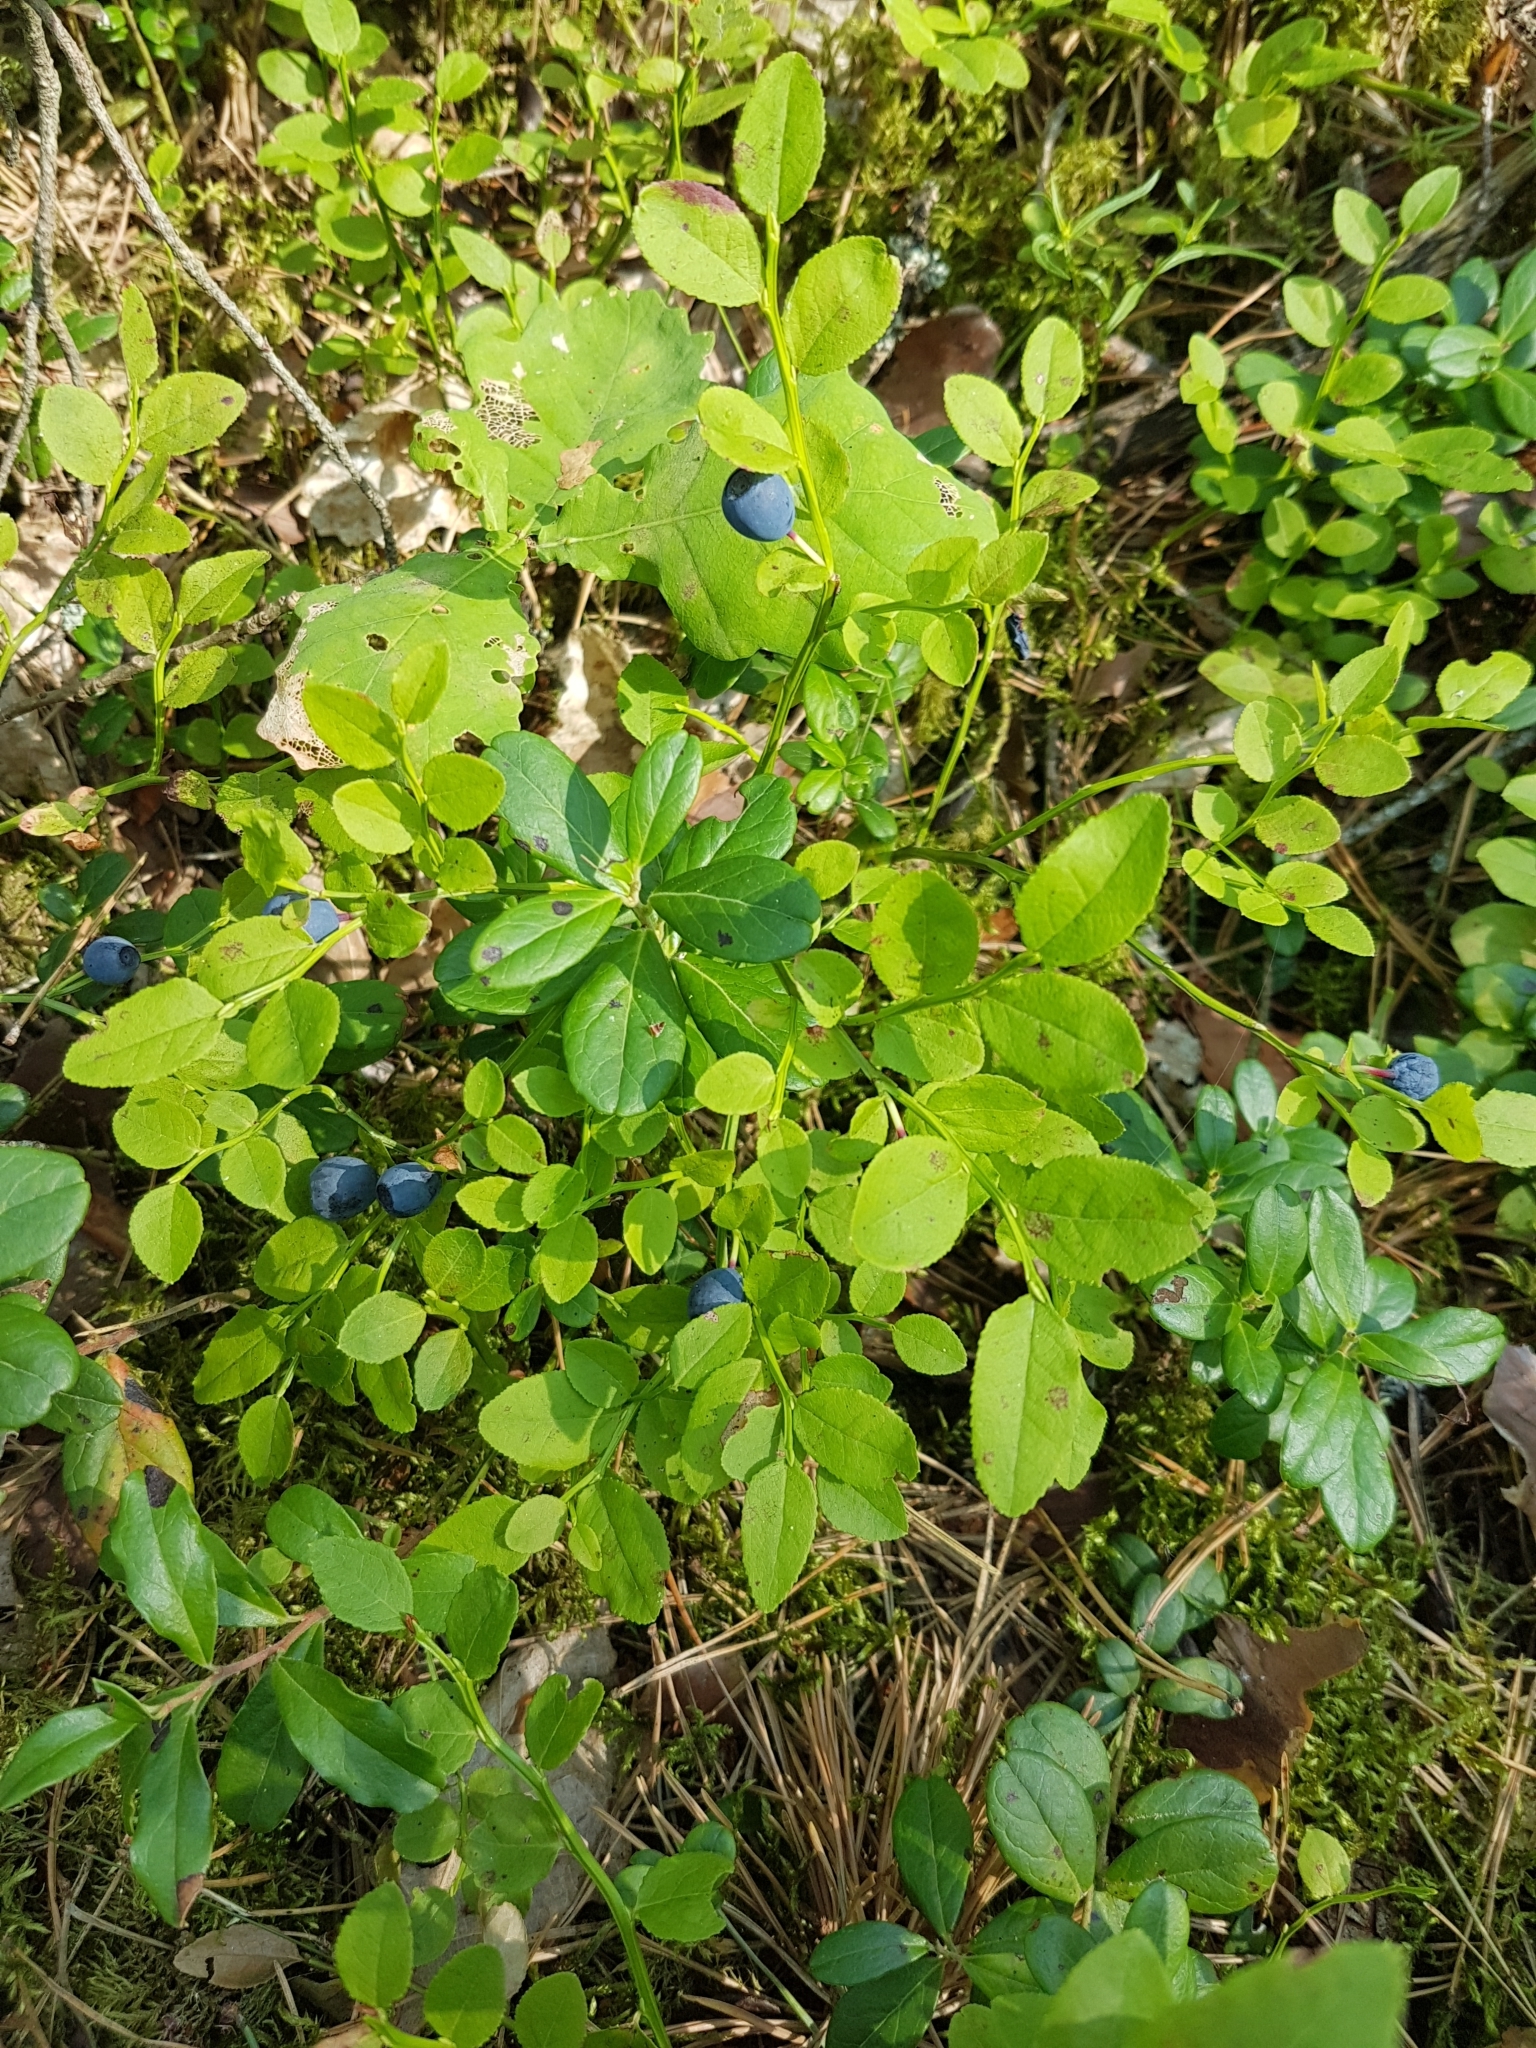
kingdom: Plantae
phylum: Tracheophyta
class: Magnoliopsida
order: Ericales
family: Ericaceae
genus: Vaccinium
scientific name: Vaccinium myrtillus
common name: Bilberry
